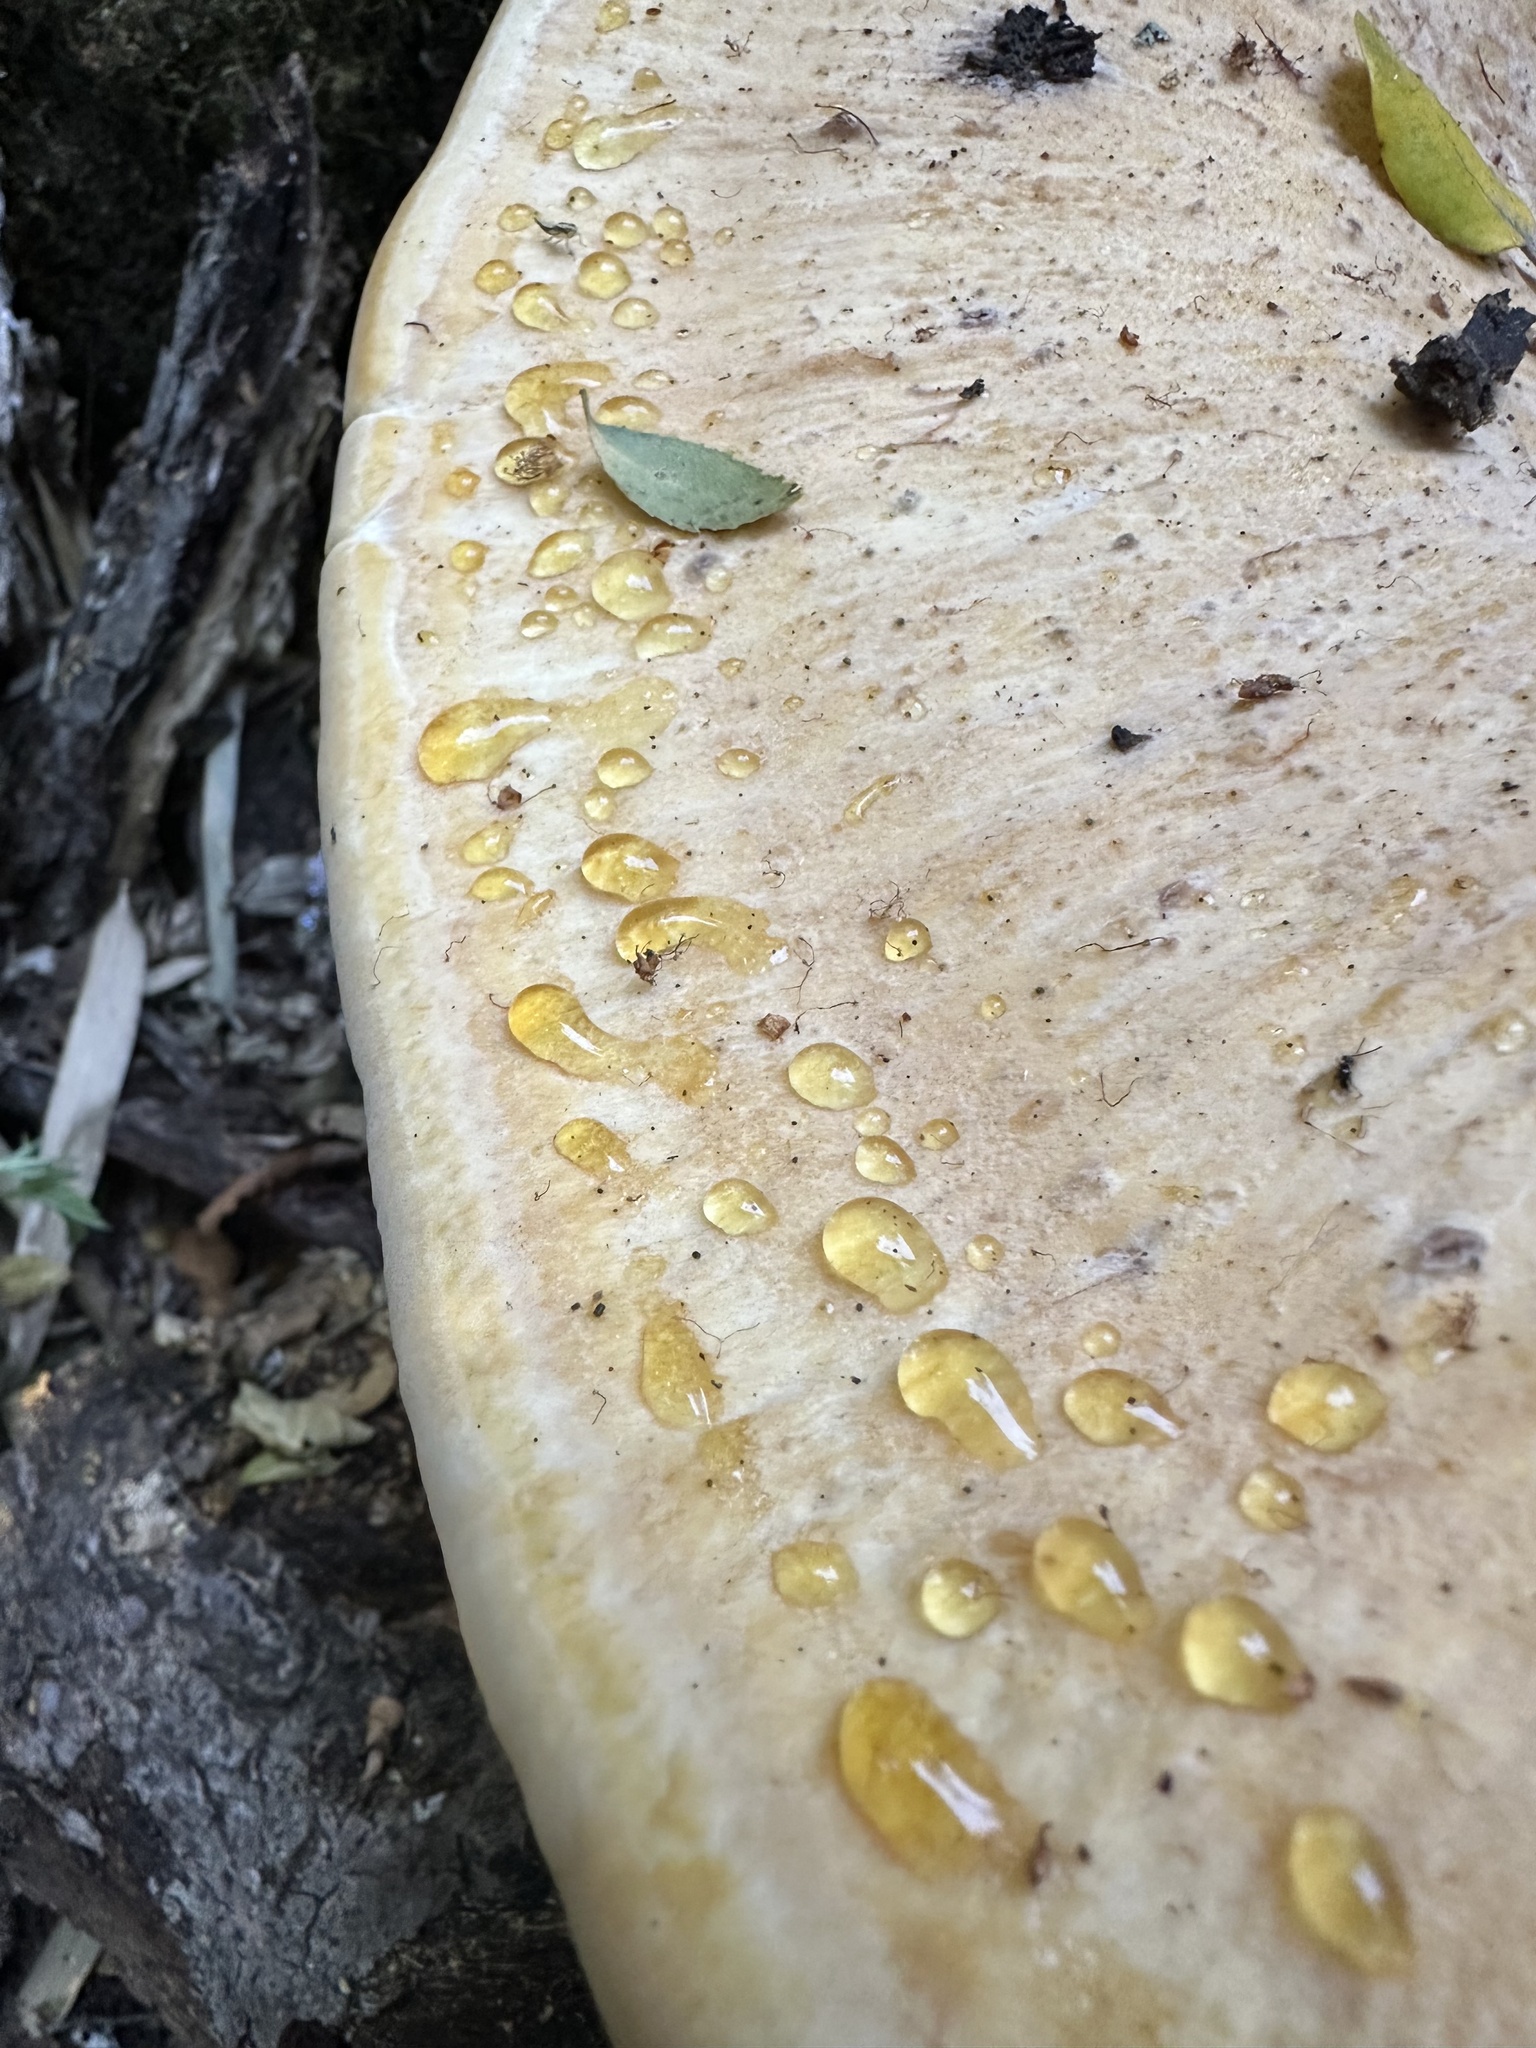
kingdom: Fungi
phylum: Basidiomycota
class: Agaricomycetes
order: Russulales
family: Bondarzewiaceae
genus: Bondarzewia
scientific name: Bondarzewia guaitecasensis
